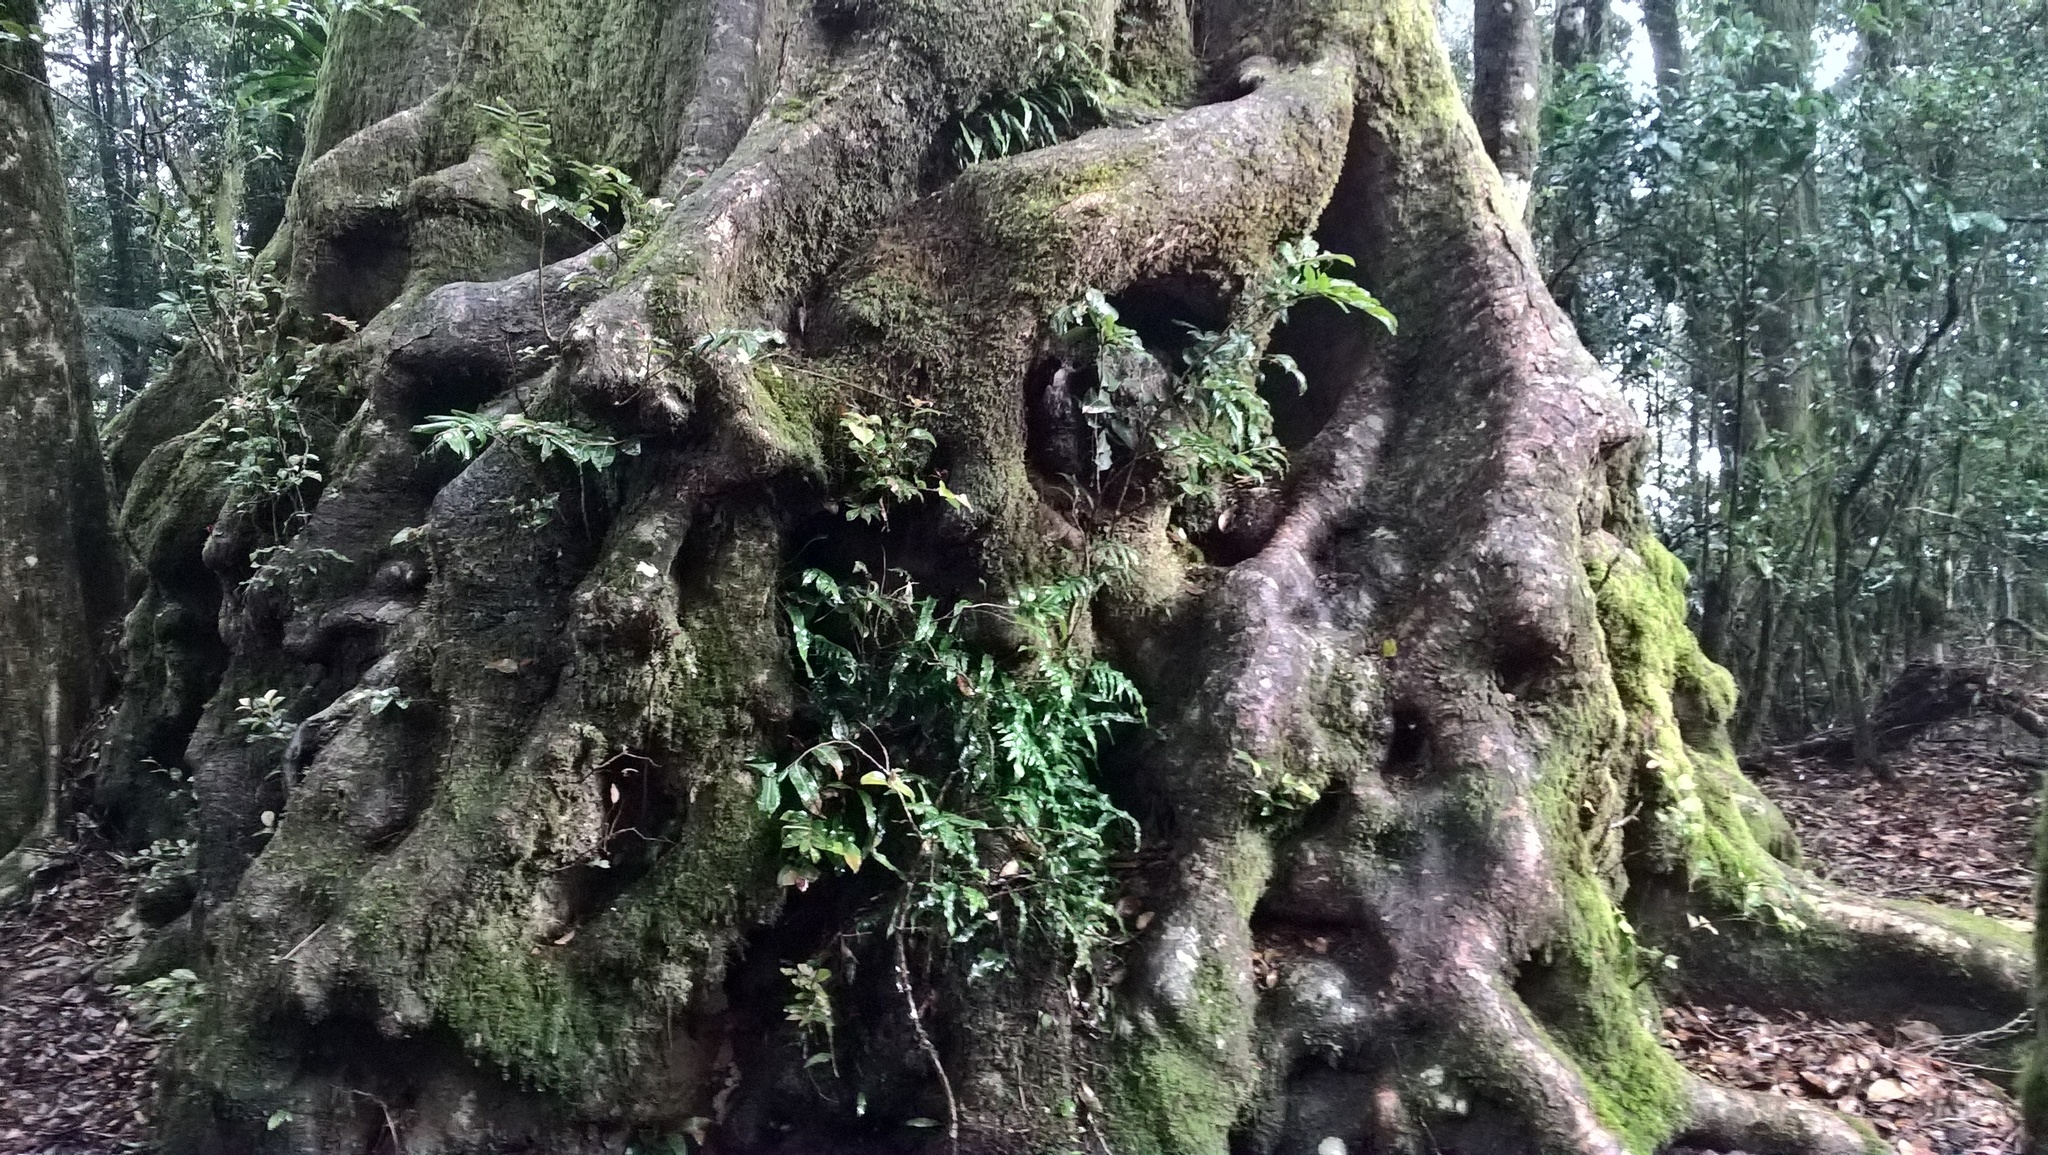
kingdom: Plantae
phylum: Tracheophyta
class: Magnoliopsida
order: Fagales
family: Nothofagaceae
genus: Nothofagus
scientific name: Nothofagus moorei
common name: Antarctic beech
